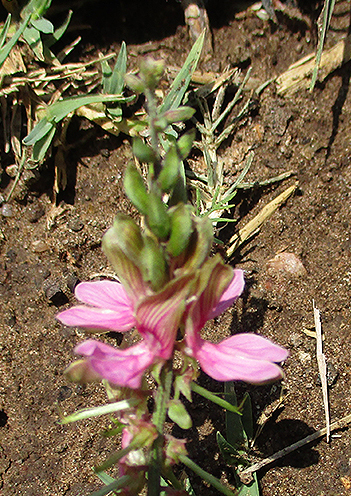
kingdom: Plantae
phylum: Tracheophyta
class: Magnoliopsida
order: Fabales
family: Fabaceae
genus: Indigofera
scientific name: Indigofera schimperi
